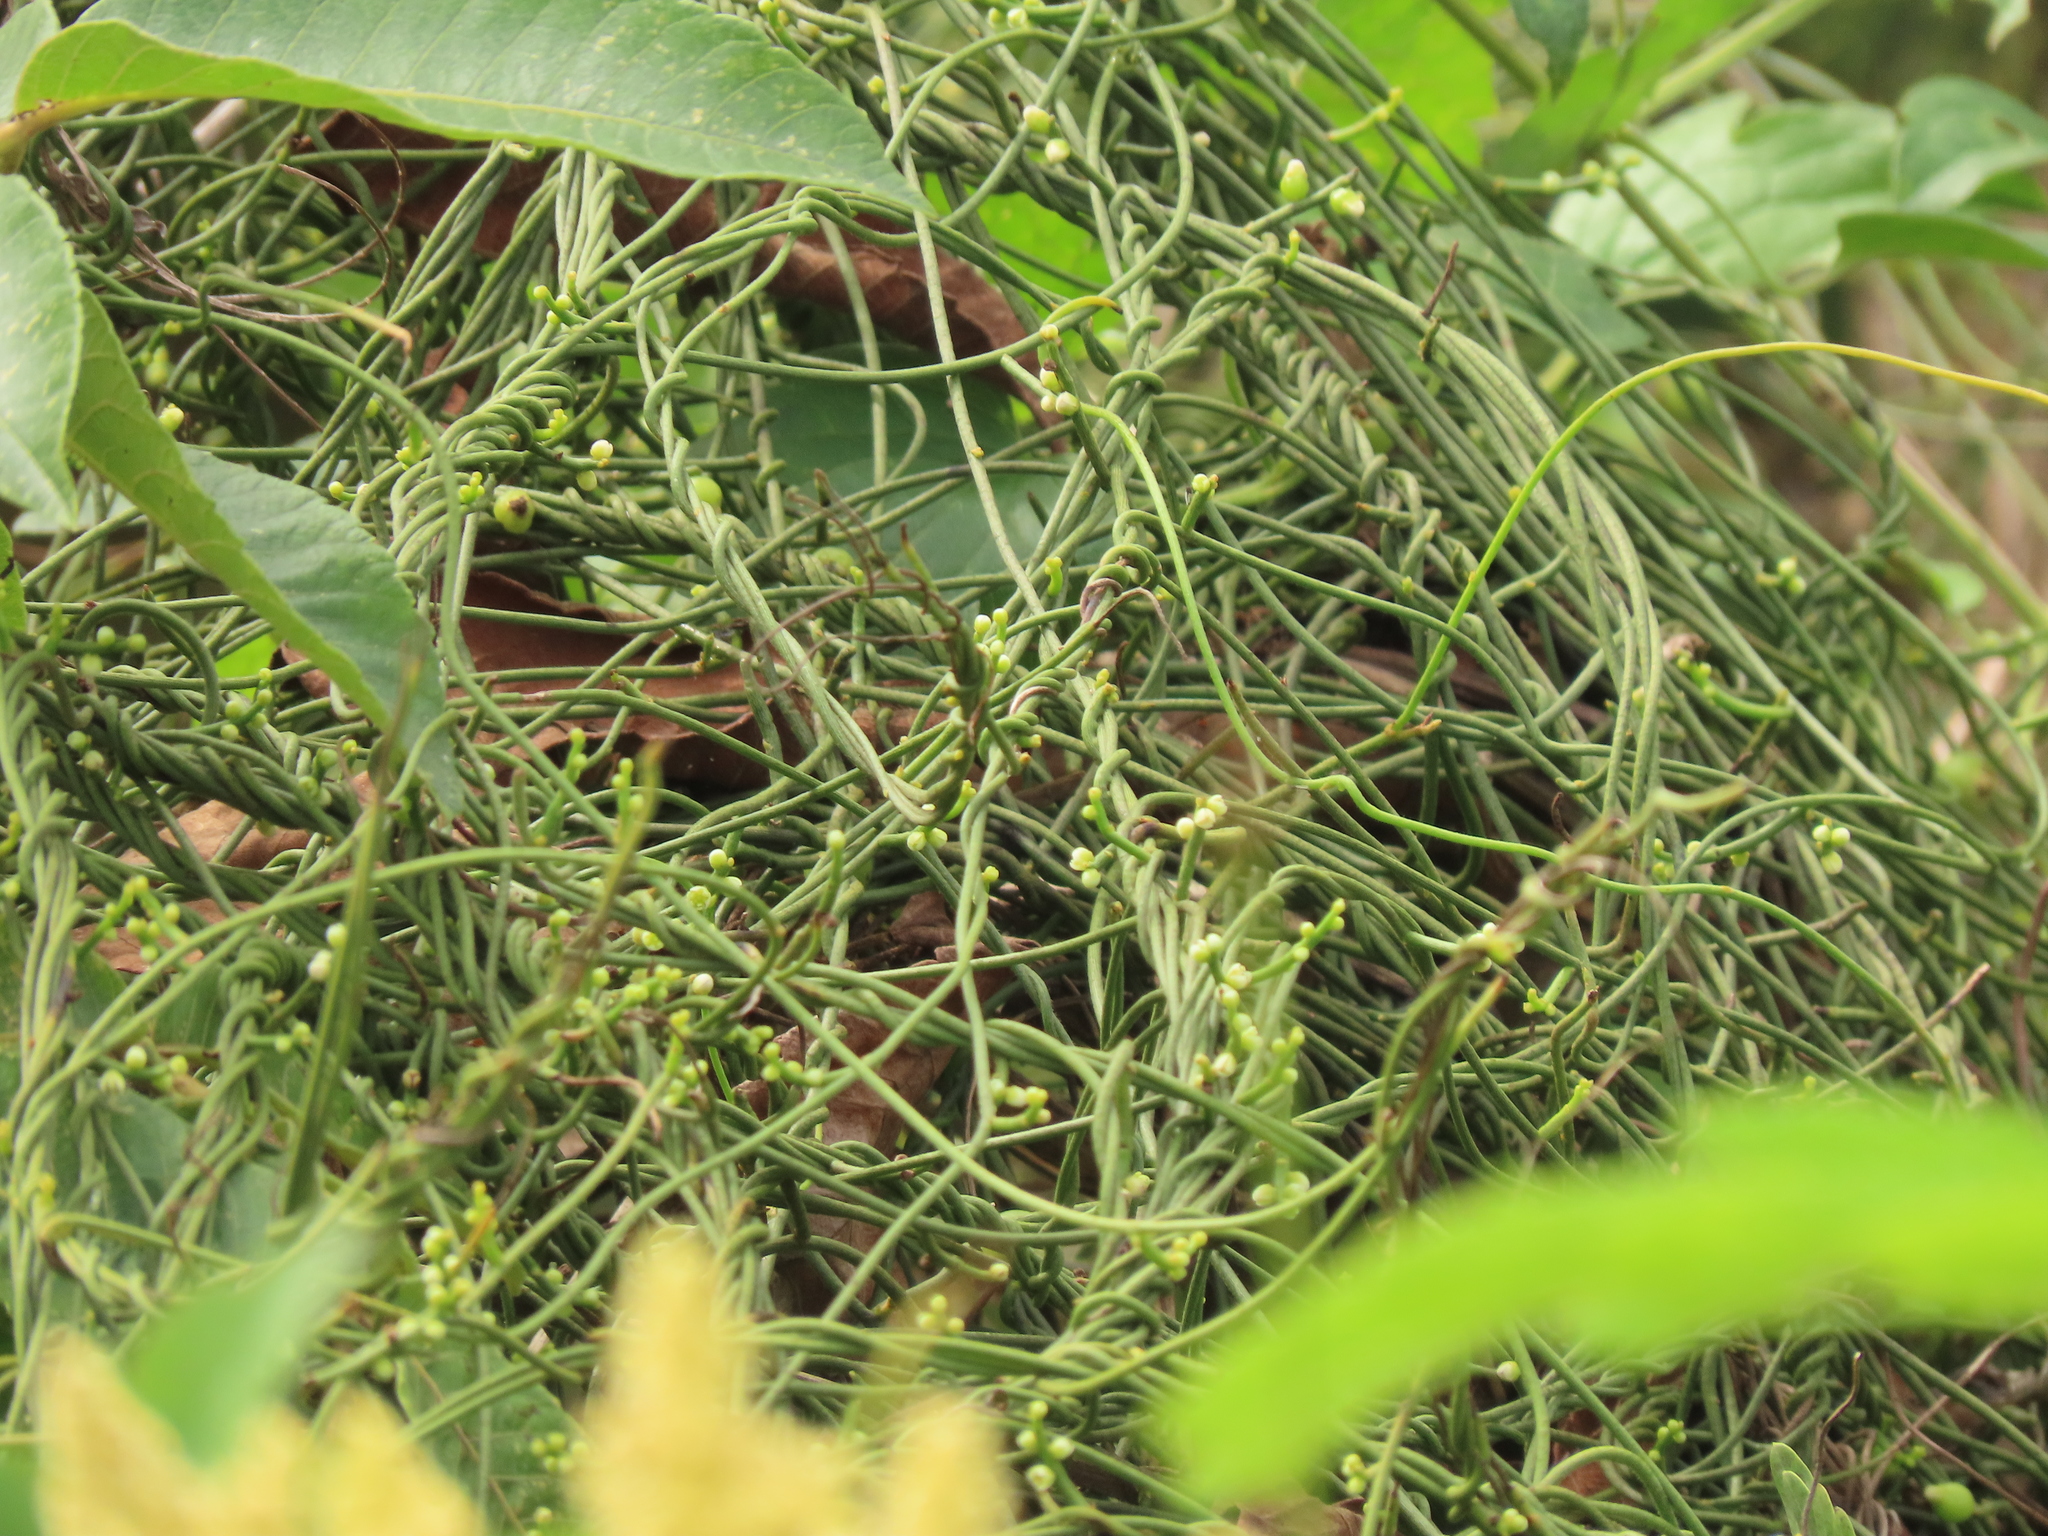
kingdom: Plantae
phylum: Tracheophyta
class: Magnoliopsida
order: Laurales
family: Lauraceae
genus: Cassytha
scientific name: Cassytha filiformis
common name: Dodder-laurel
